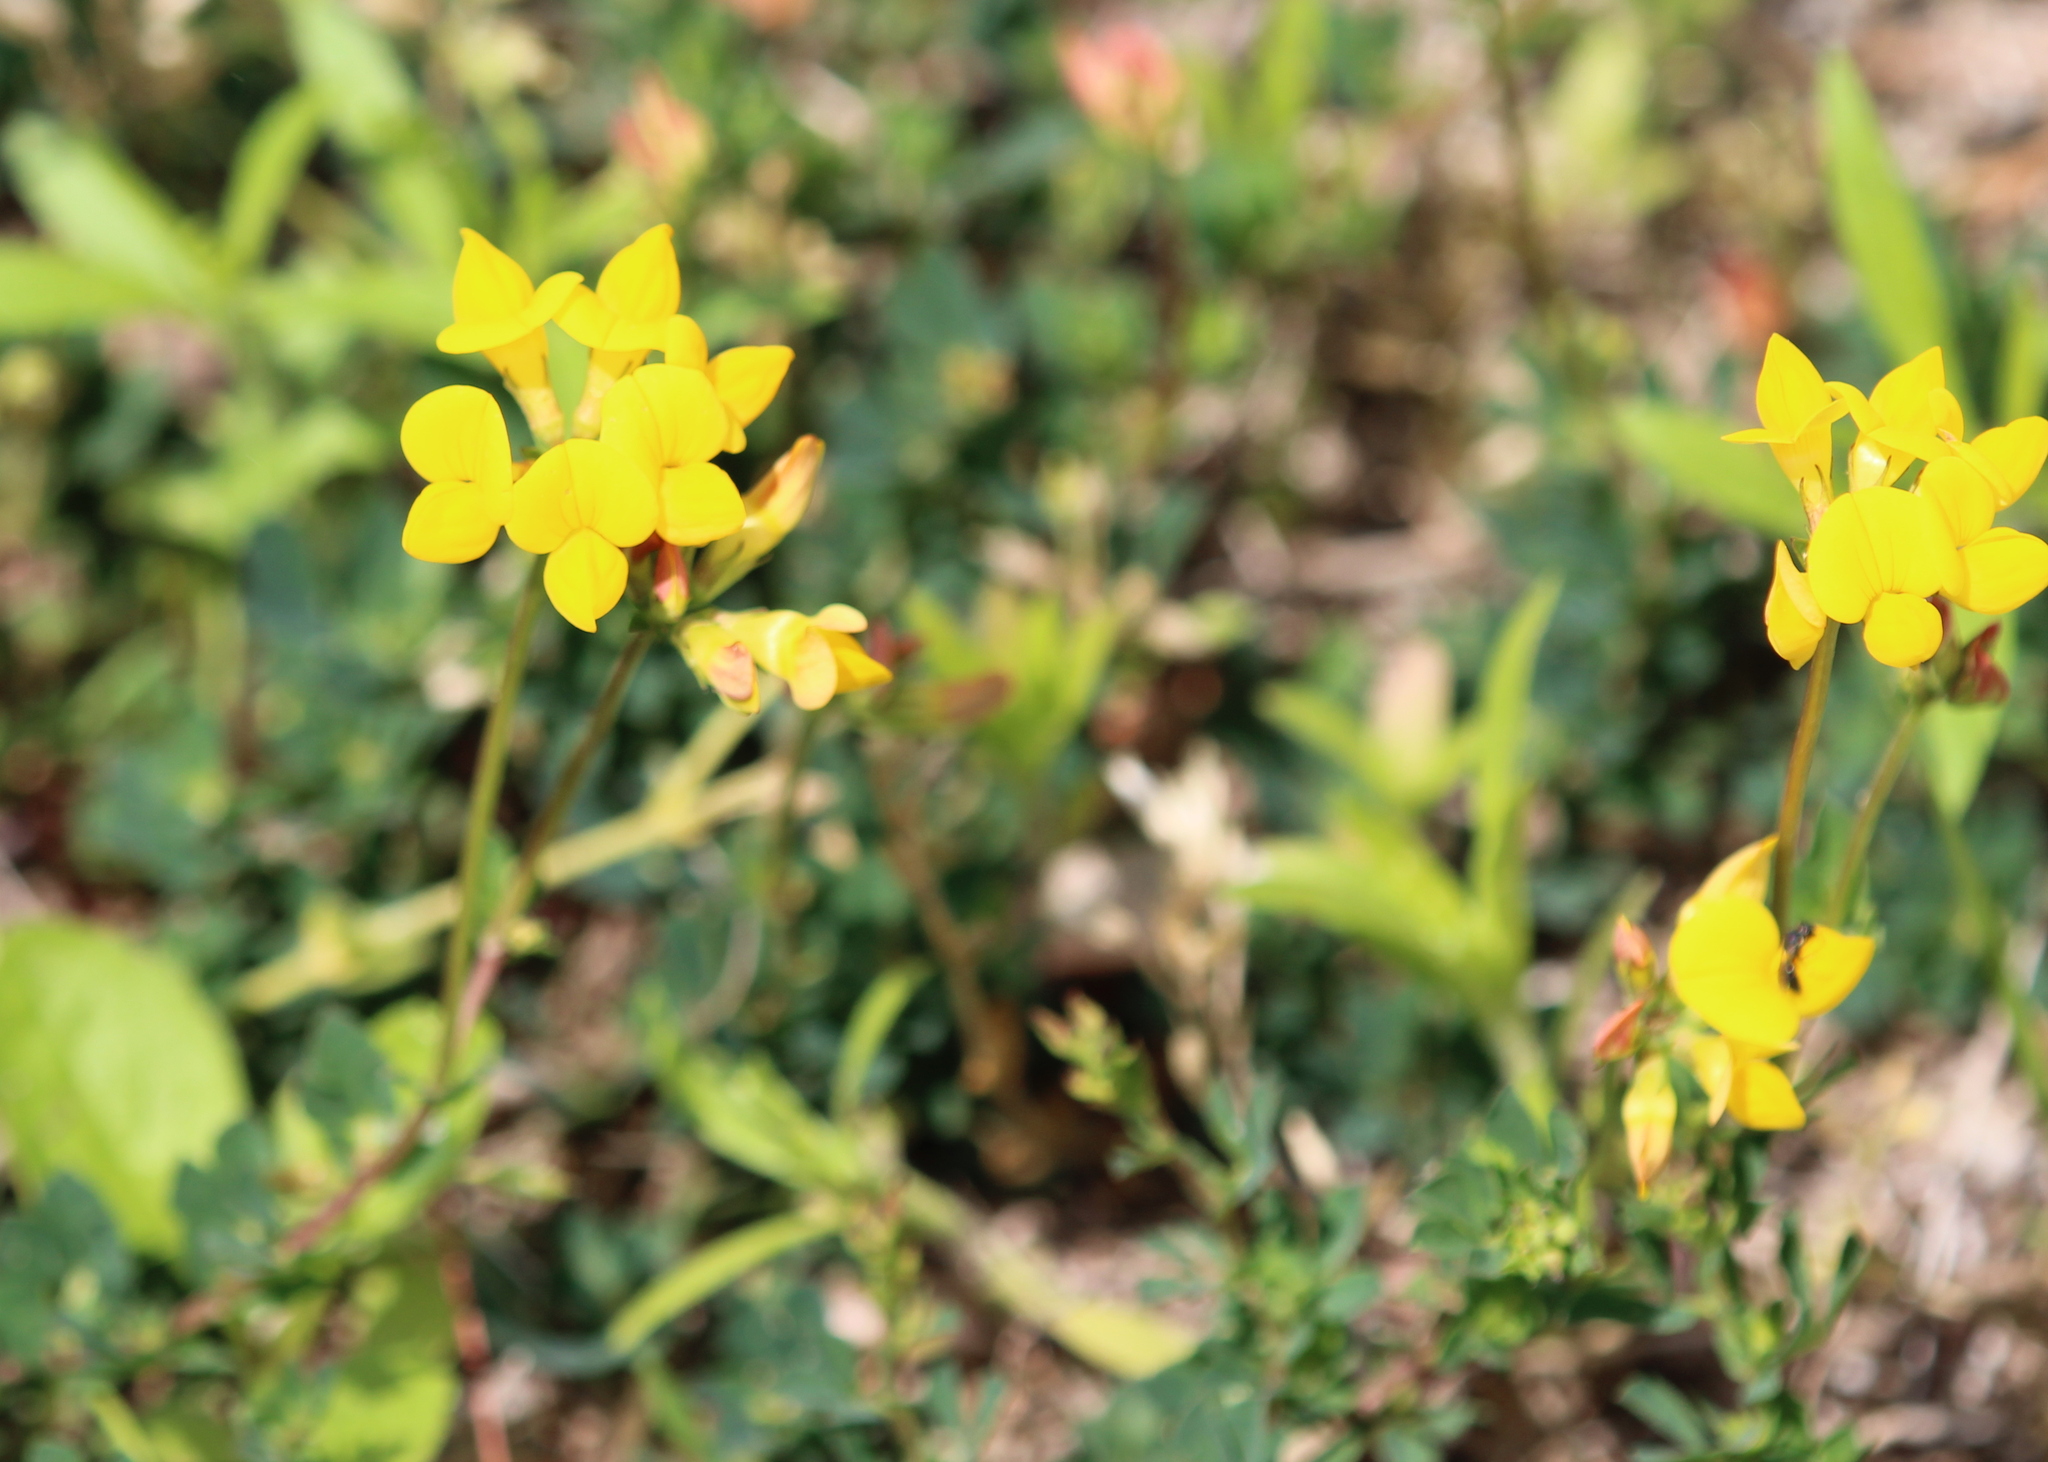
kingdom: Plantae
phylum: Tracheophyta
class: Magnoliopsida
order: Fabales
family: Fabaceae
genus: Lotus
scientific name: Lotus corniculatus
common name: Common bird's-foot-trefoil
